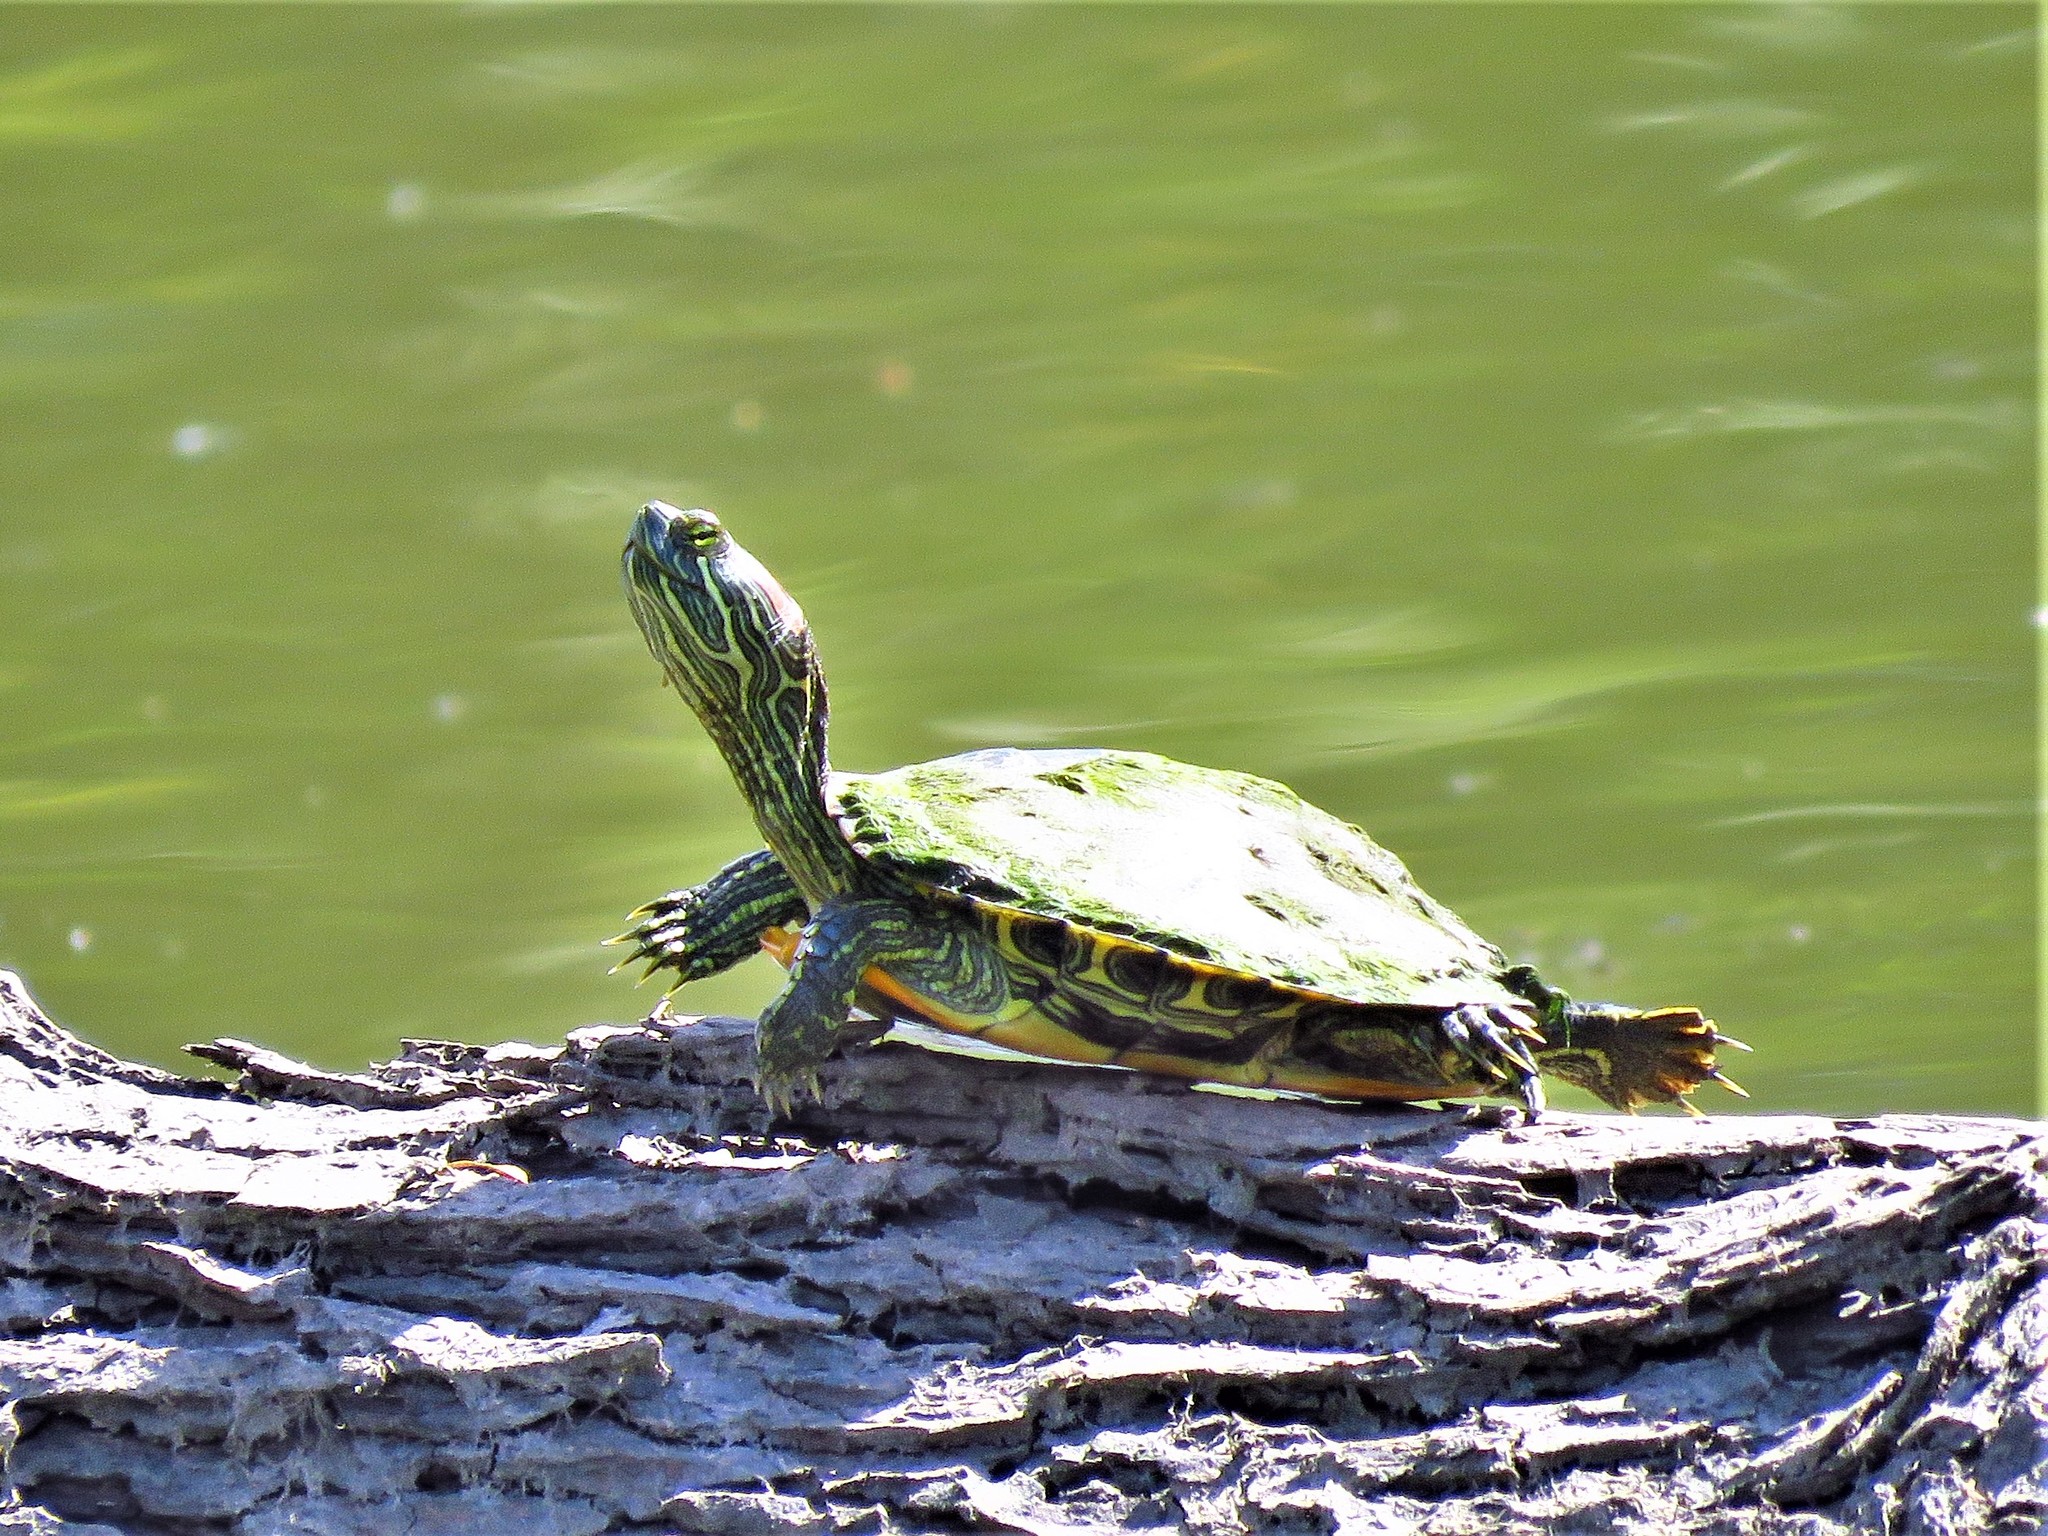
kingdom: Animalia
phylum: Chordata
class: Testudines
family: Emydidae
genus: Trachemys
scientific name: Trachemys scripta
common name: Slider
